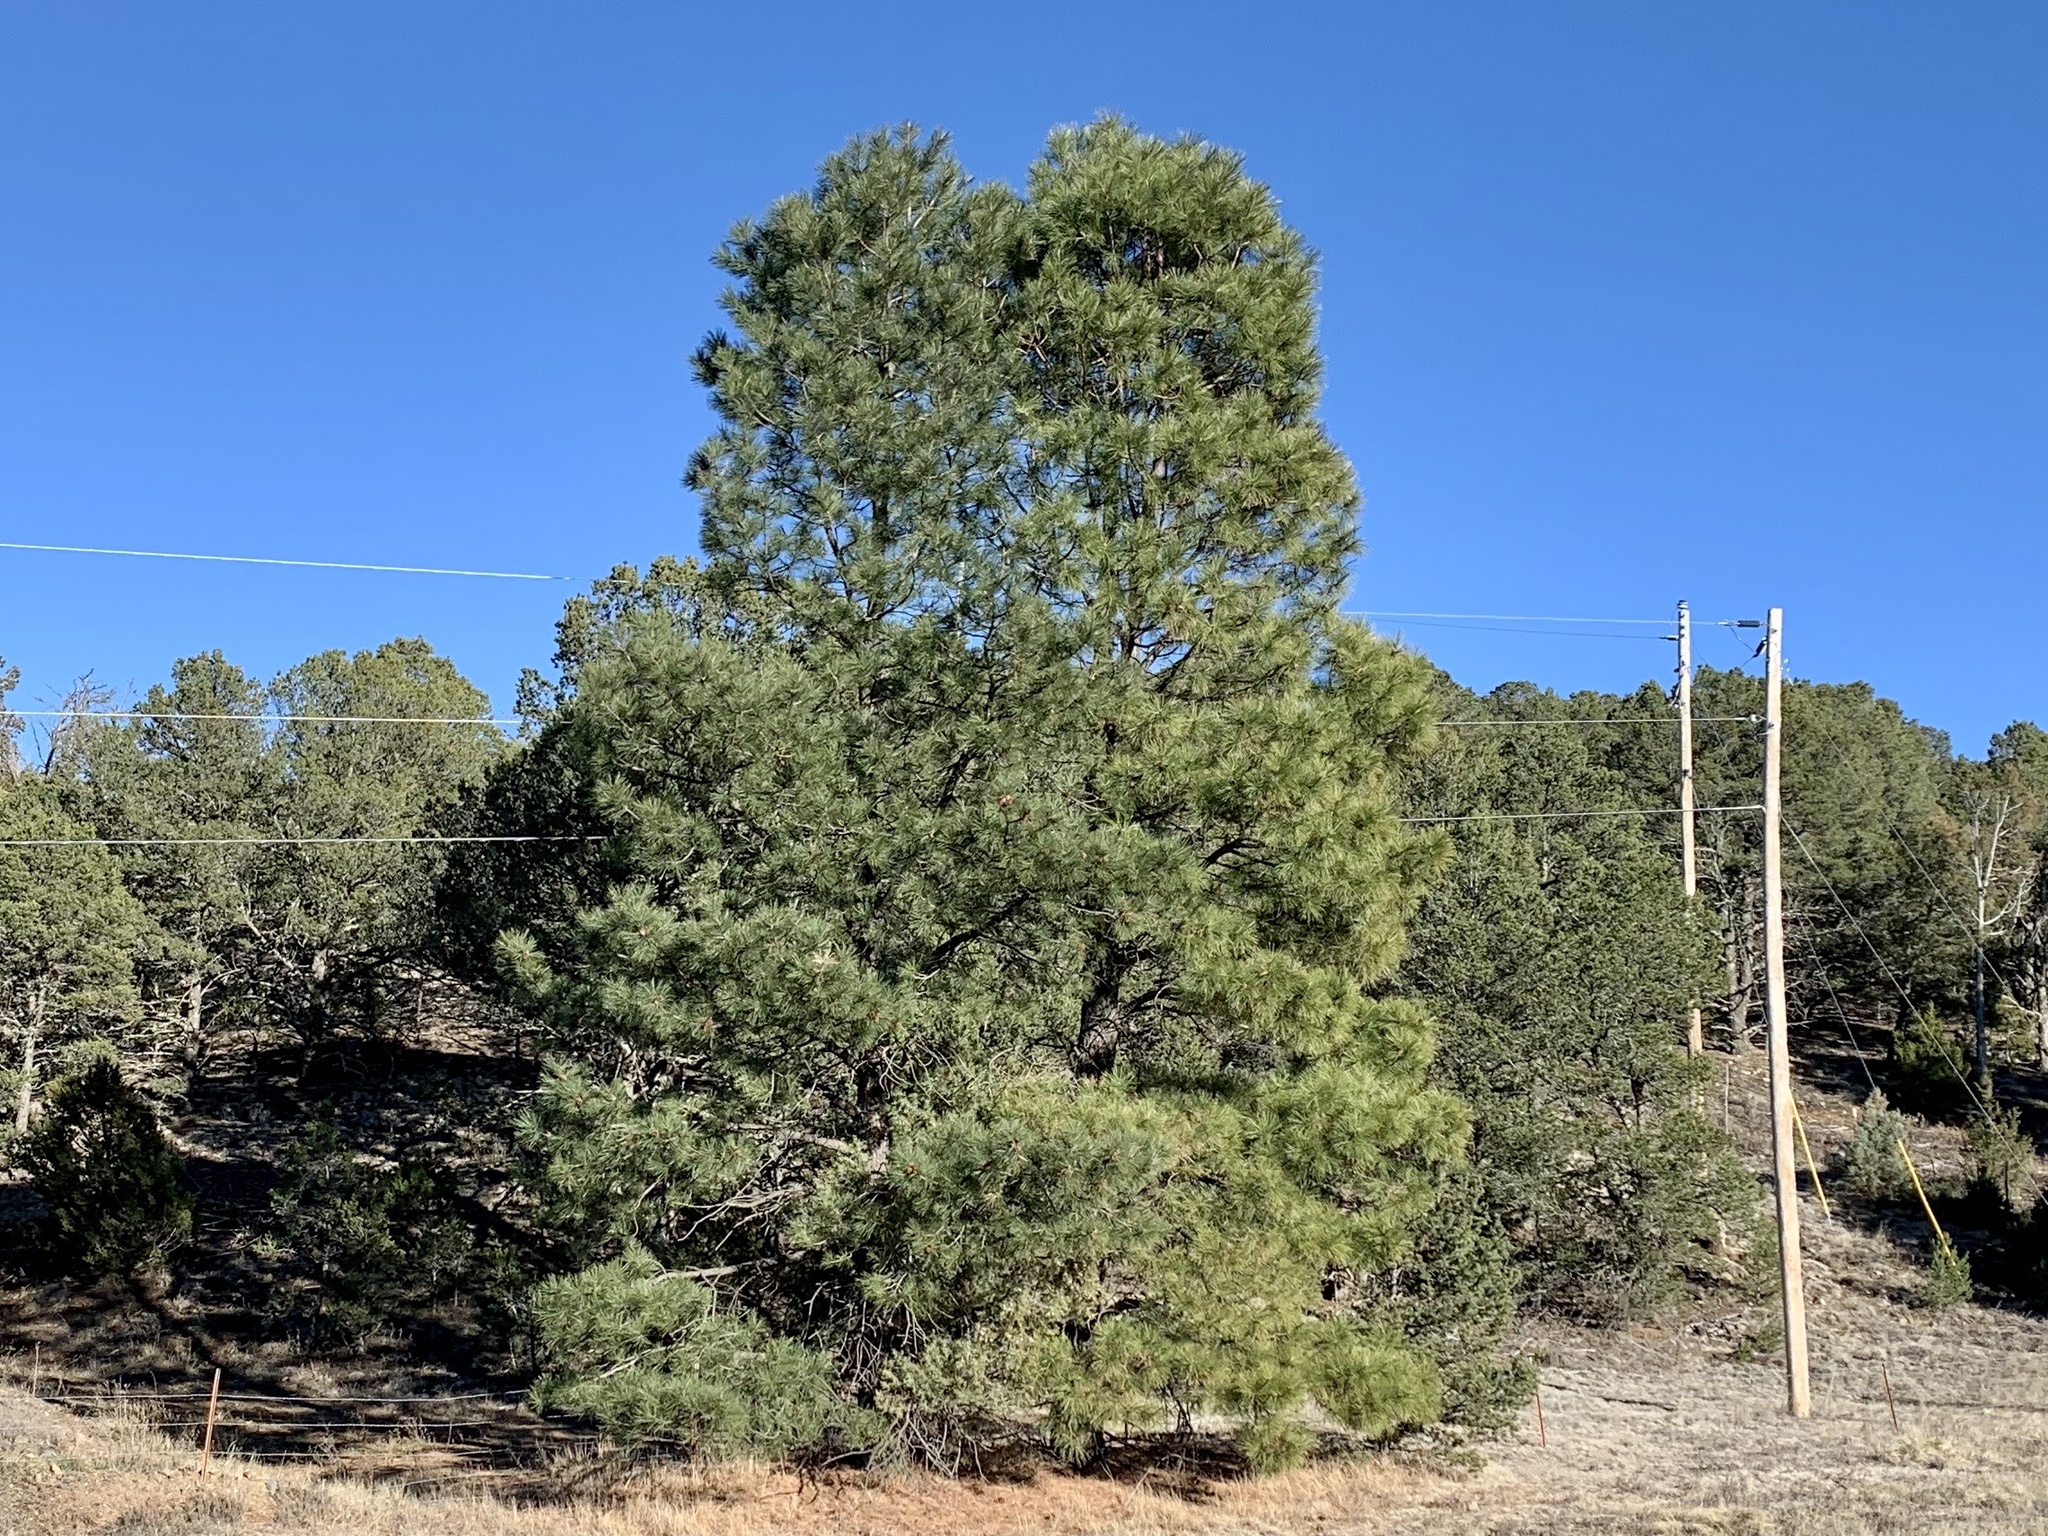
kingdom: Plantae
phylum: Tracheophyta
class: Pinopsida
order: Pinales
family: Pinaceae
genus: Pinus
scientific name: Pinus ponderosa
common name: Western yellow-pine
